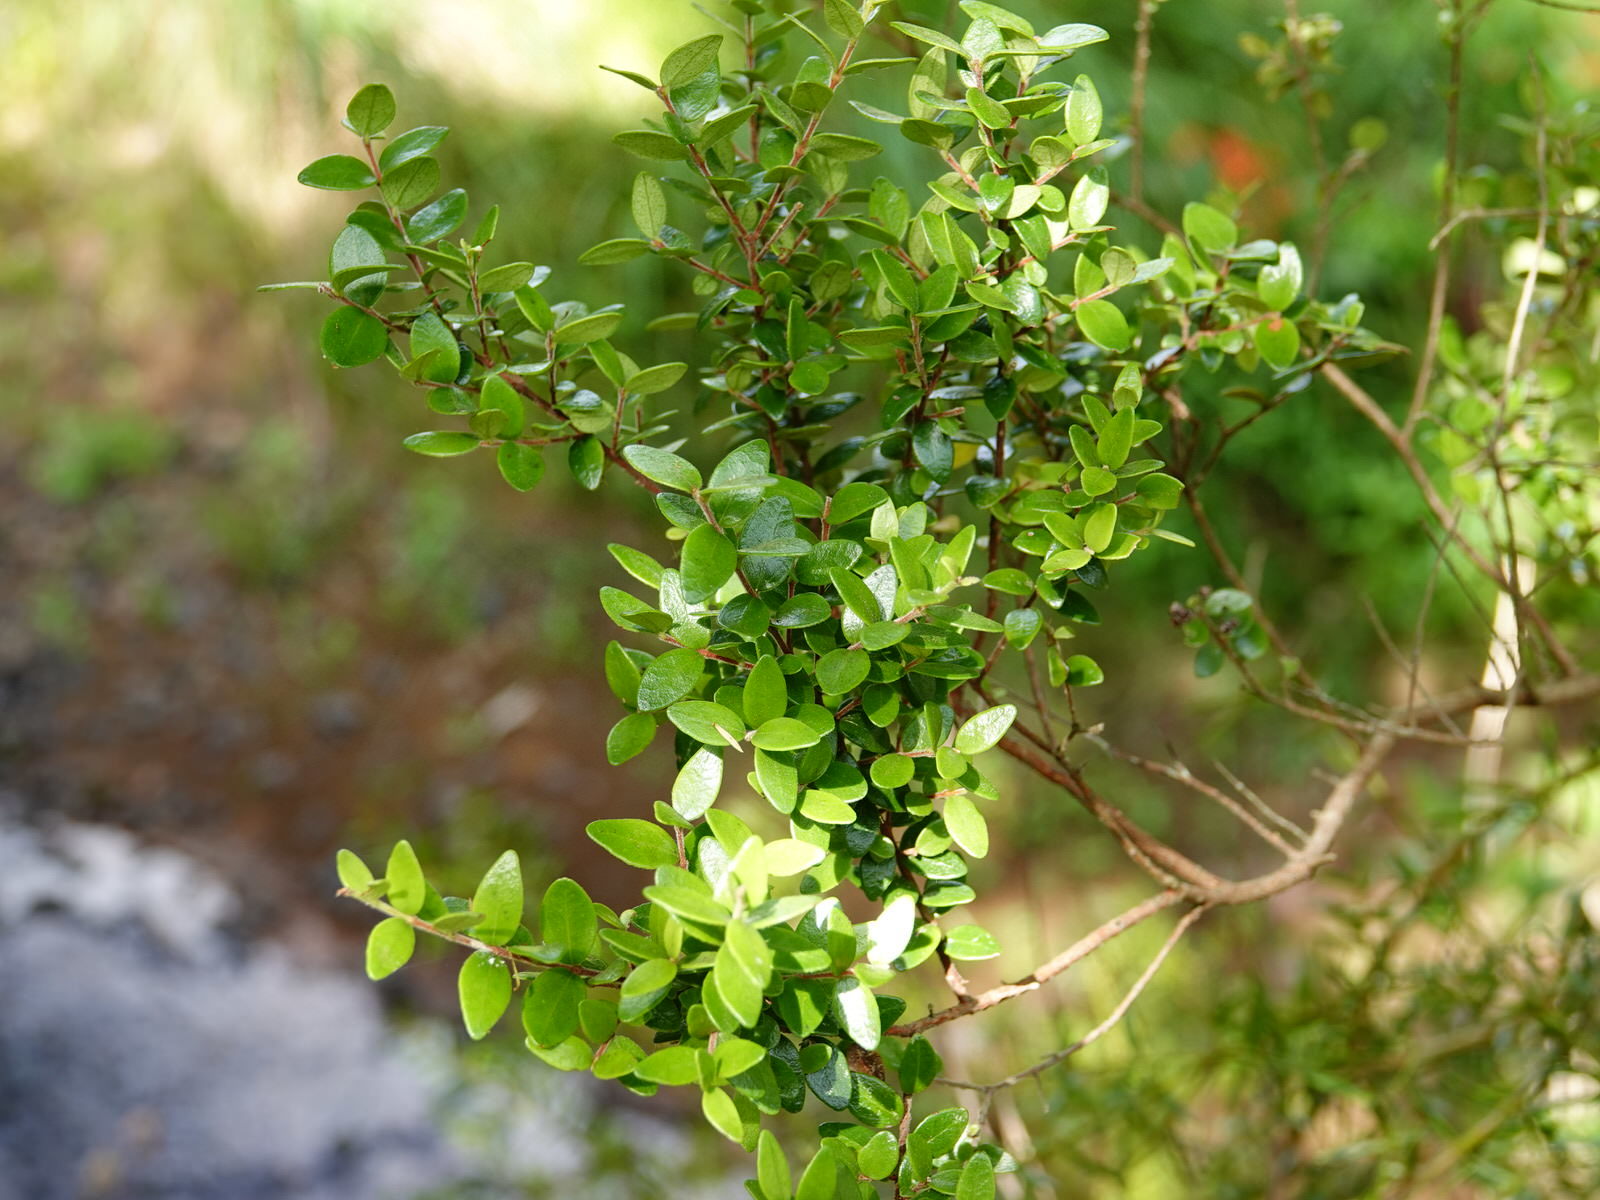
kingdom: Plantae
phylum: Tracheophyta
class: Magnoliopsida
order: Myrtales
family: Myrtaceae
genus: Metrosideros
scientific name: Metrosideros diffusa
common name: Small ratavine
